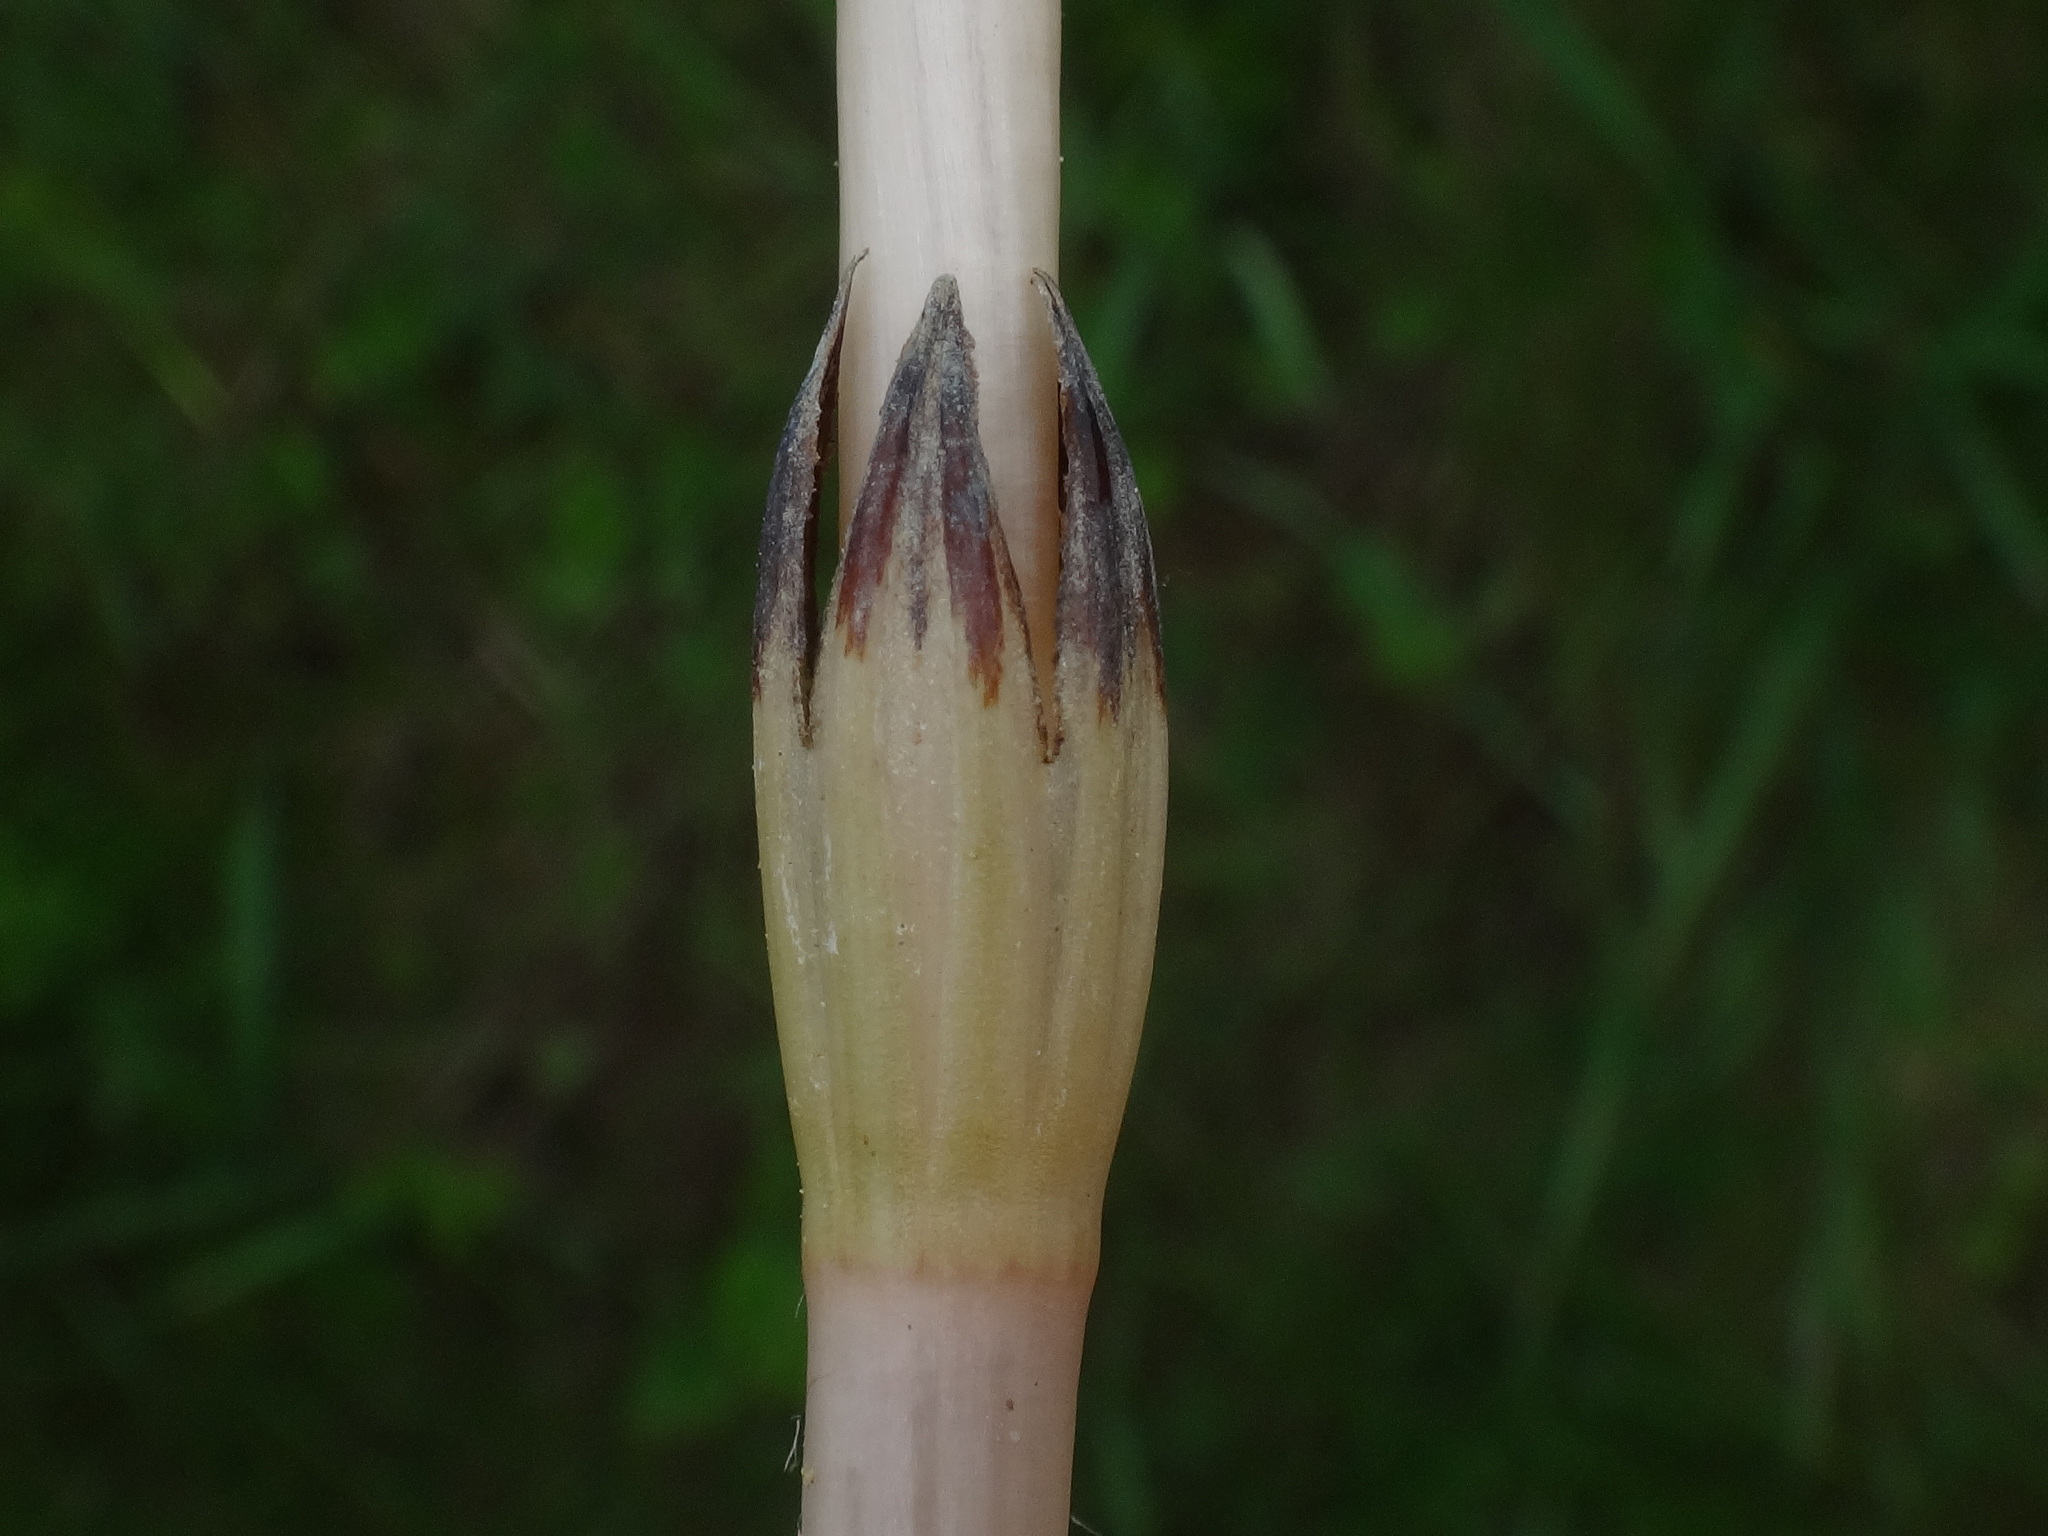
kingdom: Plantae
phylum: Tracheophyta
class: Polypodiopsida
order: Equisetales
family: Equisetaceae
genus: Equisetum
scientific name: Equisetum arvense
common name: Field horsetail
